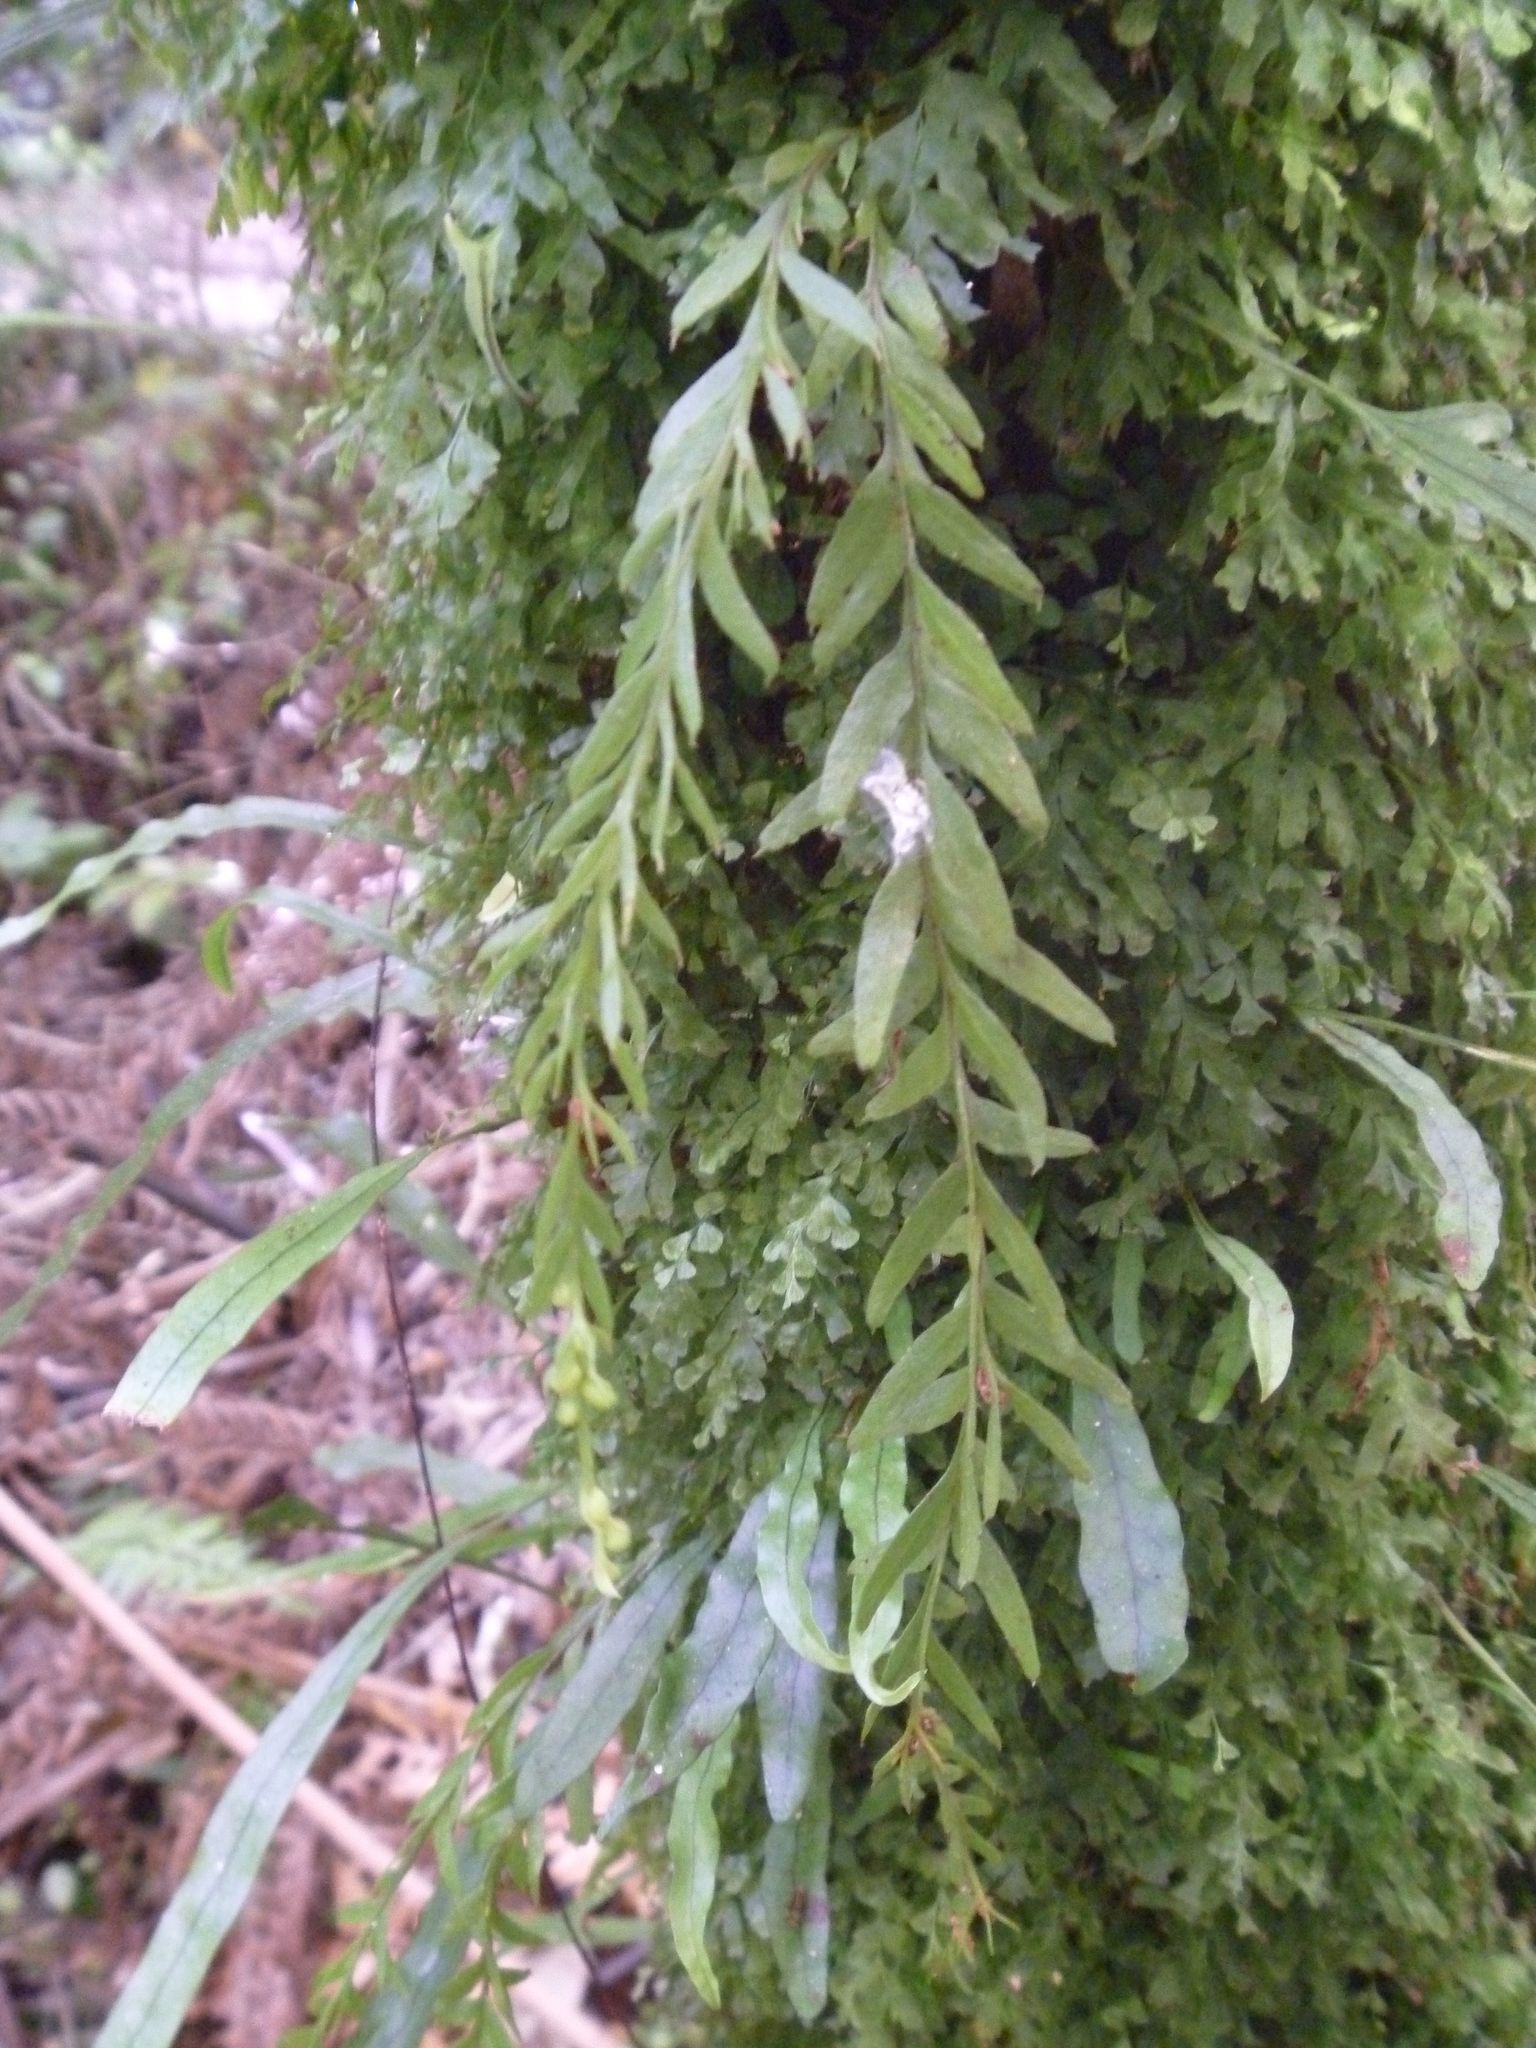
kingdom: Plantae
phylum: Tracheophyta
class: Polypodiopsida
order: Psilotales
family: Psilotaceae
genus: Tmesipteris
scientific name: Tmesipteris elongata
